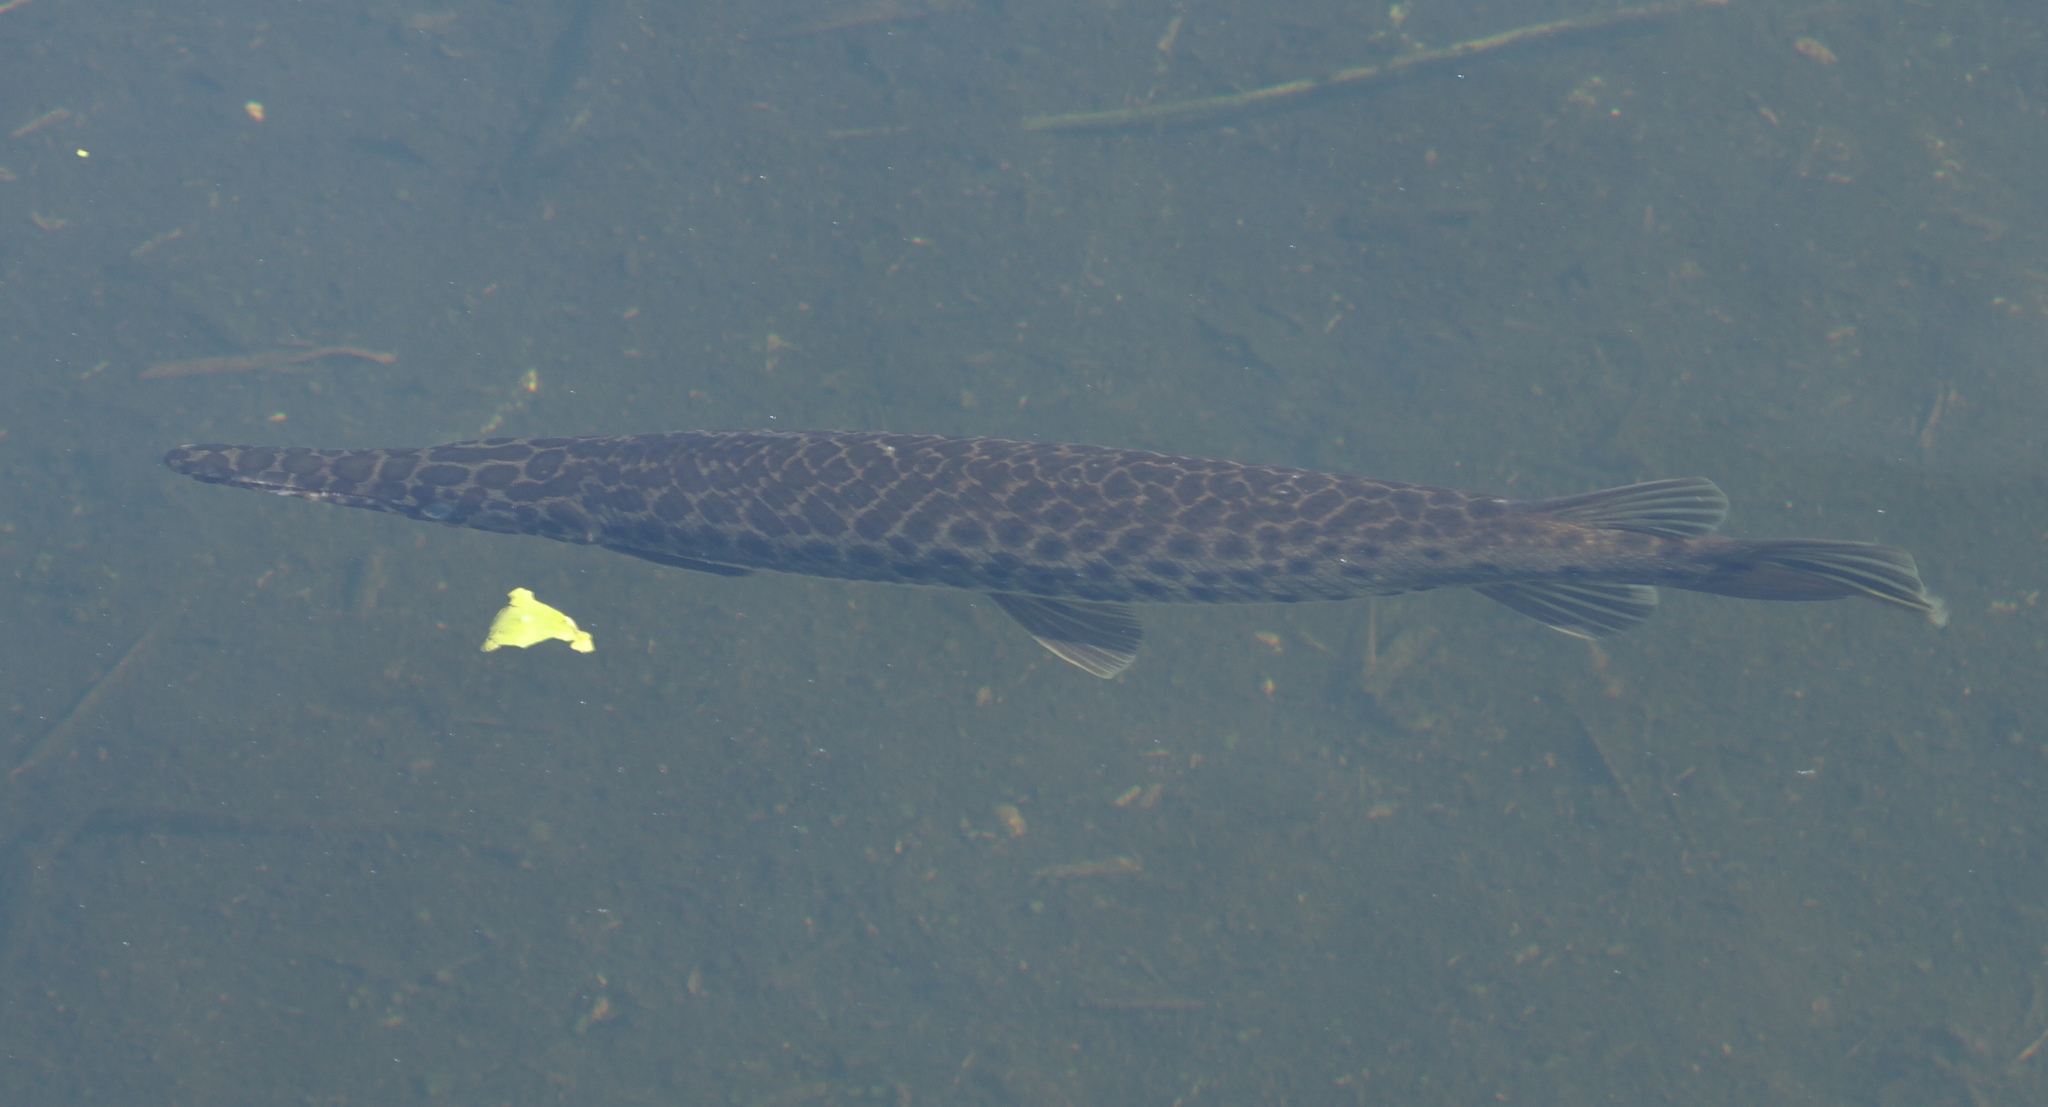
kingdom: Animalia
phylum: Chordata
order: Lepisosteiformes
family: Lepisosteidae
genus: Lepisosteus
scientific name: Lepisosteus platyrhincus
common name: Florida gar
